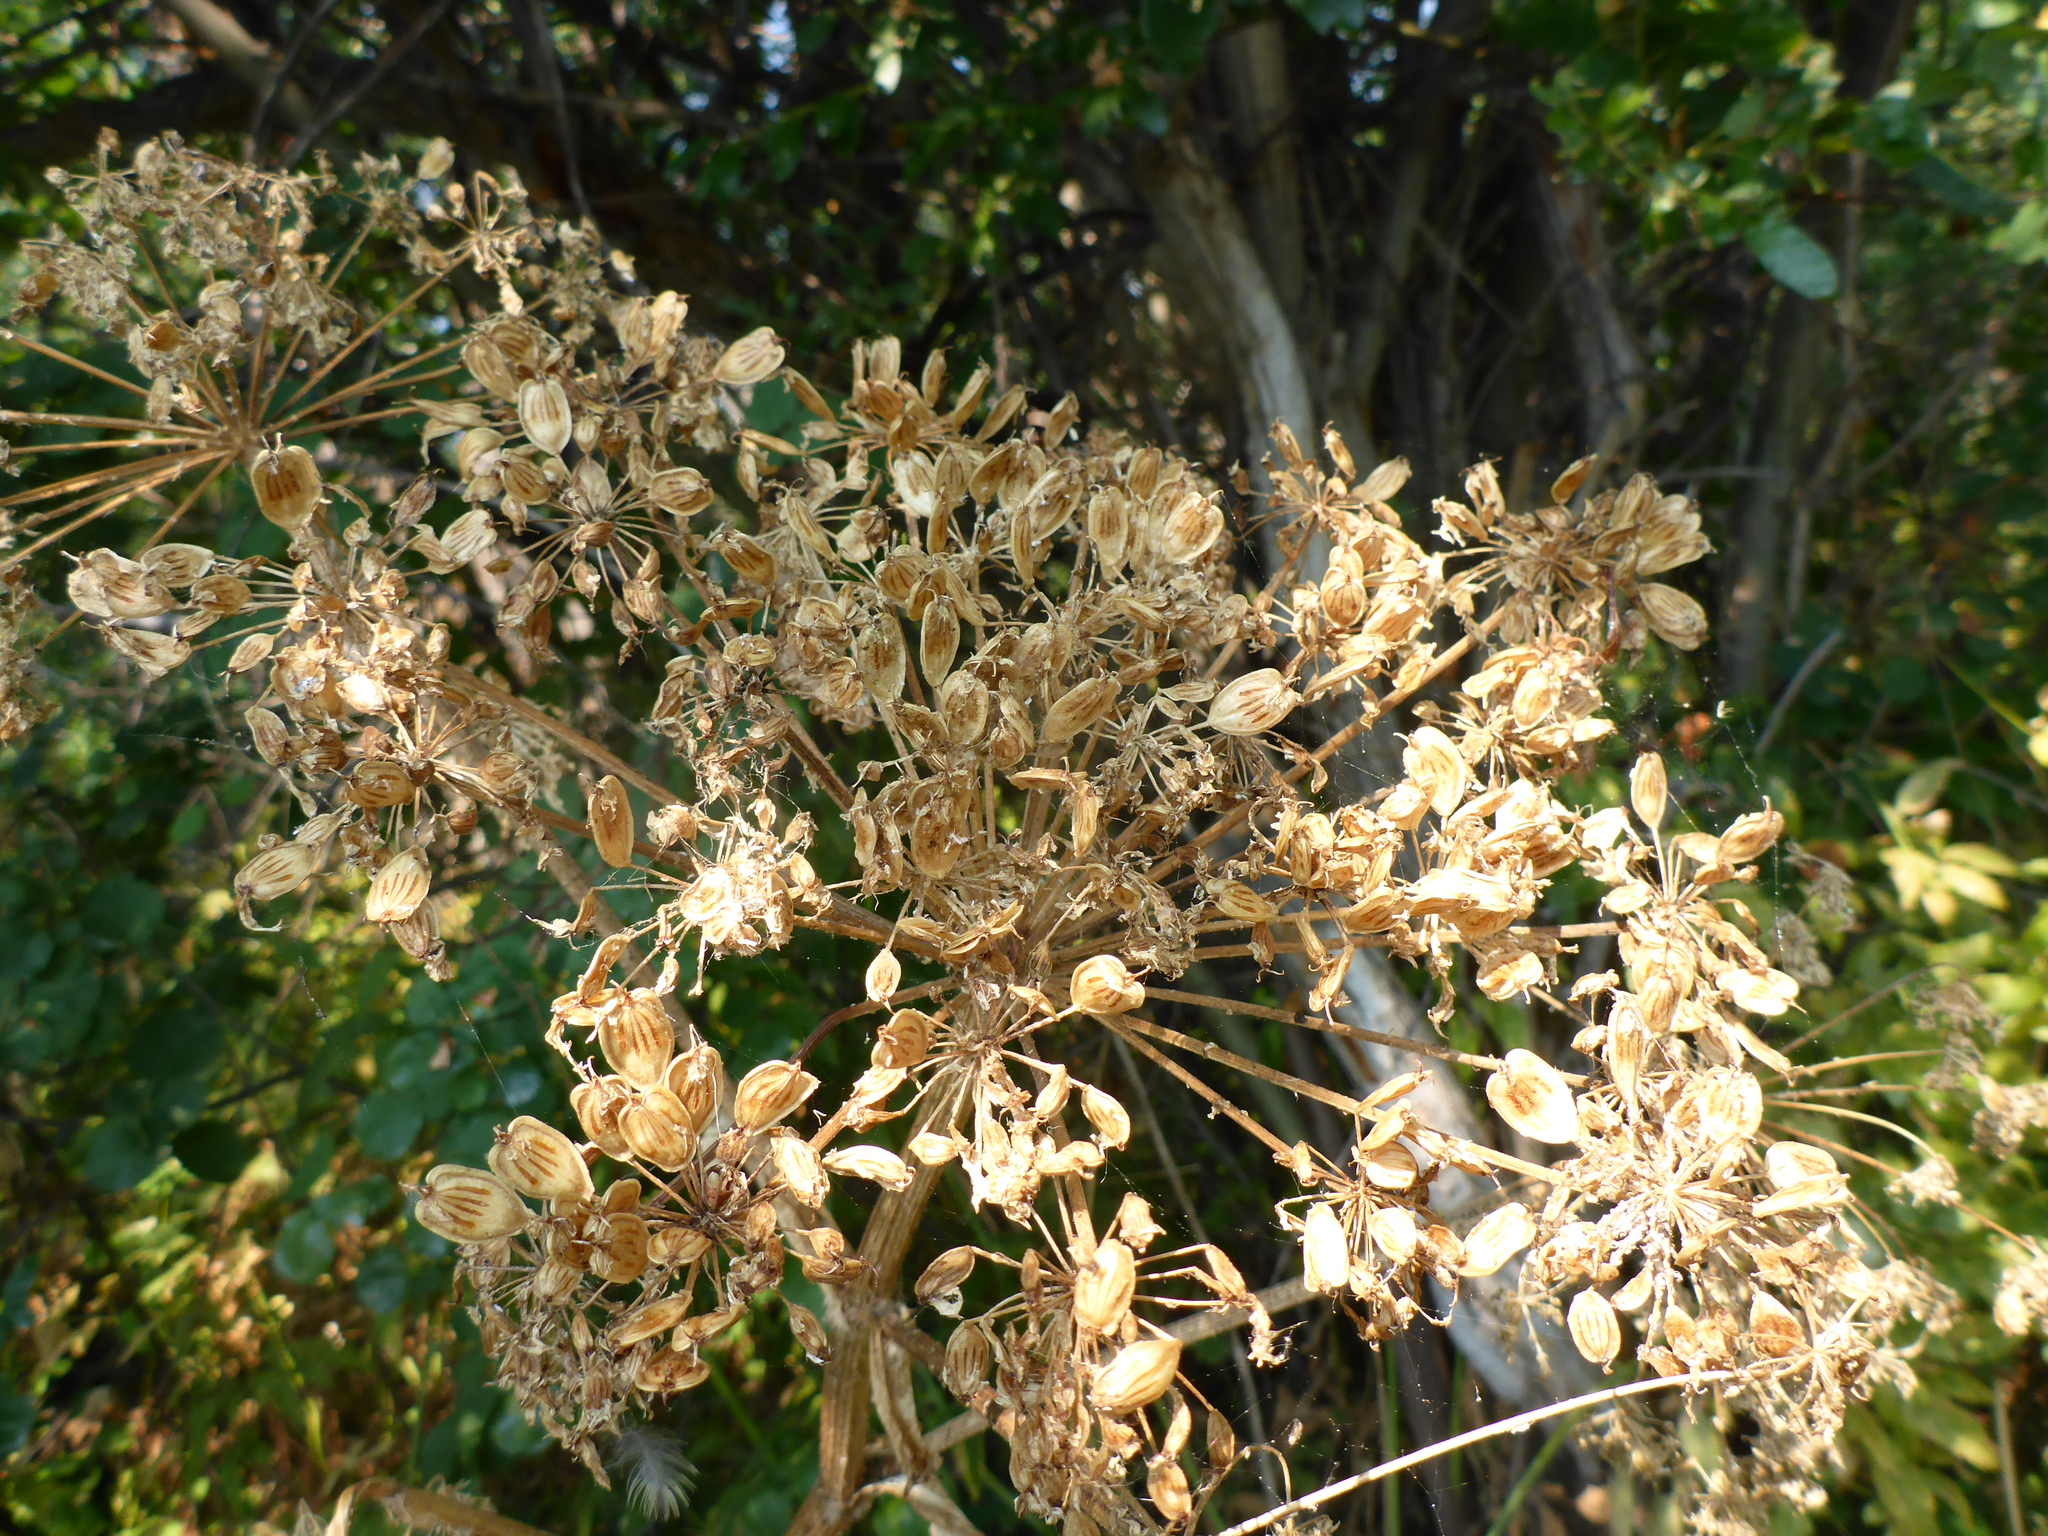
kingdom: Plantae
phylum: Tracheophyta
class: Magnoliopsida
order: Apiales
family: Apiaceae
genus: Heracleum
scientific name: Heracleum maximum
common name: American cow parsnip
